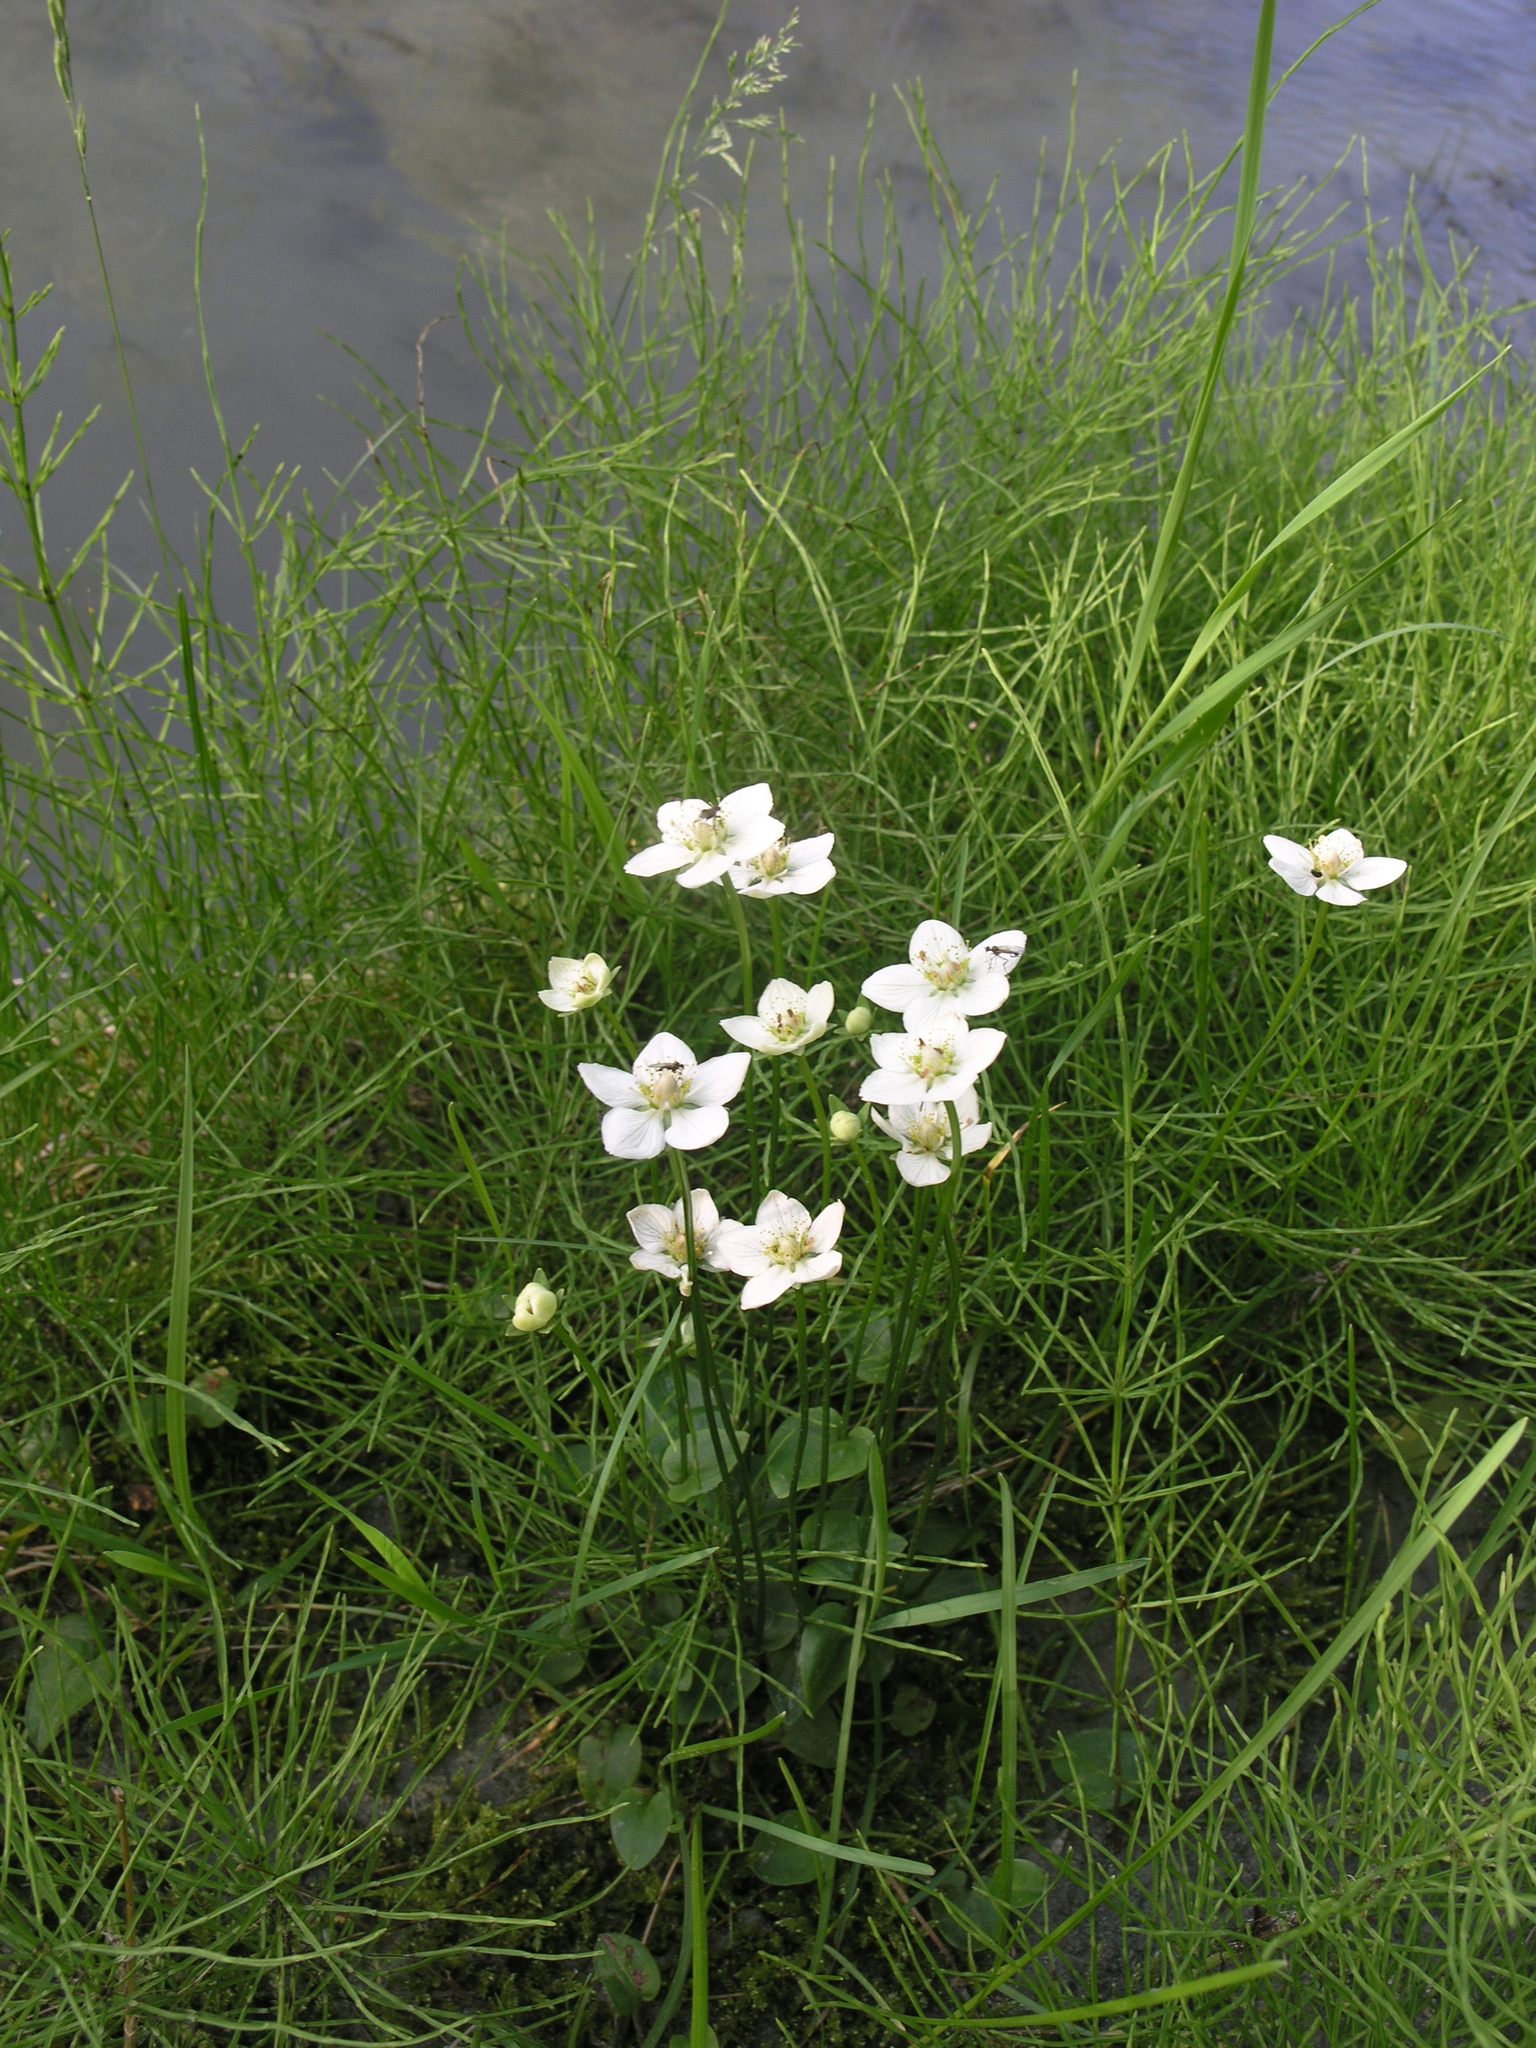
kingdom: Plantae
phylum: Tracheophyta
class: Magnoliopsida
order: Celastrales
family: Parnassiaceae
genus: Parnassia
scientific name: Parnassia palustris
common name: Grass-of-parnassus
